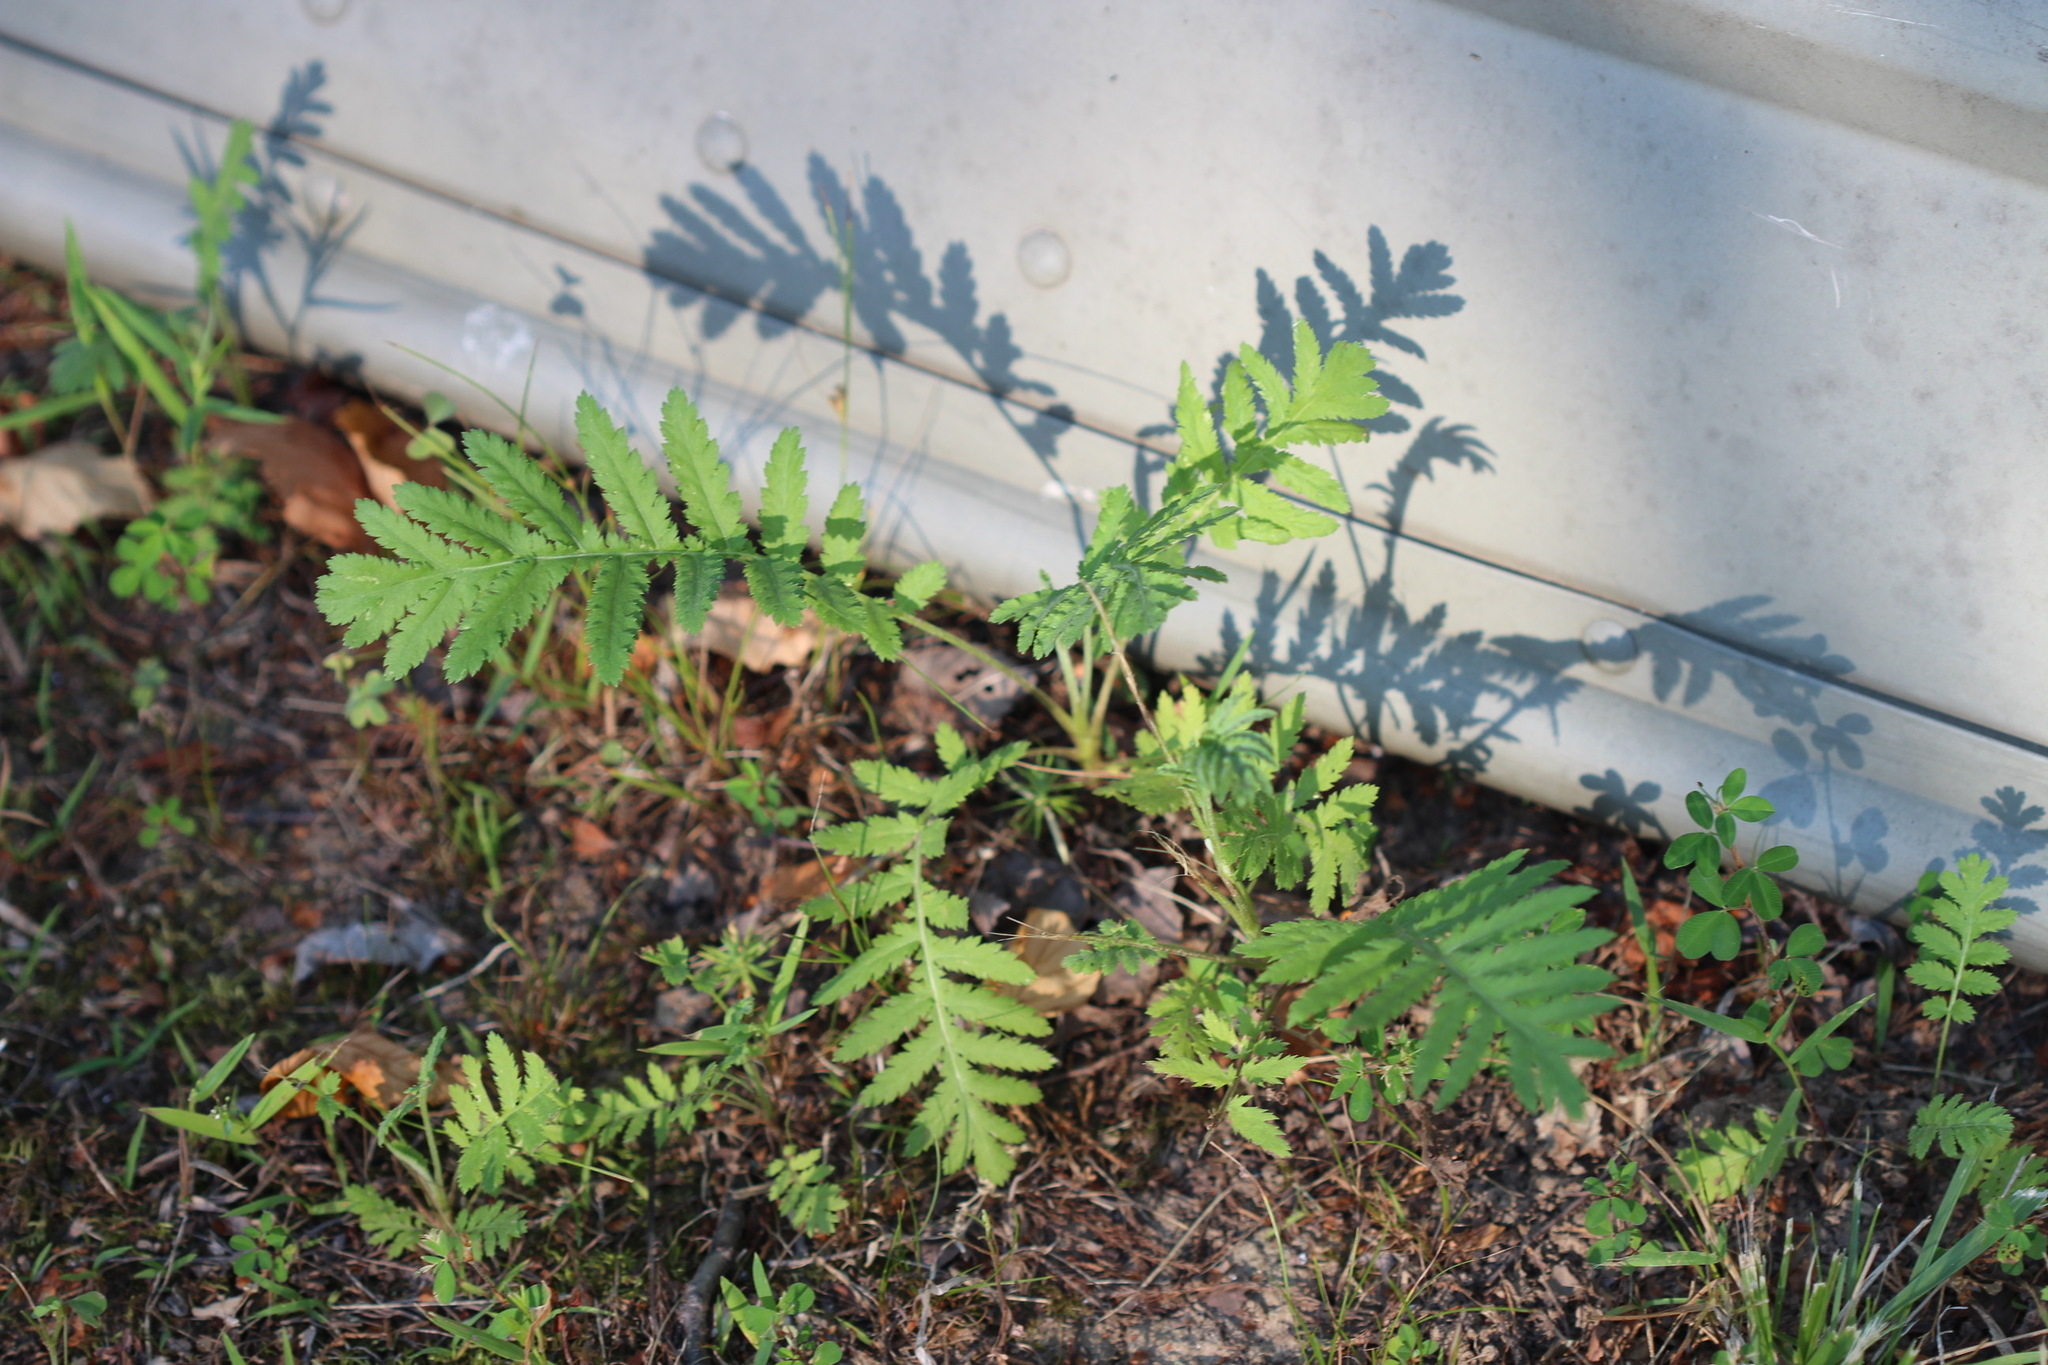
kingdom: Plantae
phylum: Tracheophyta
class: Magnoliopsida
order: Asterales
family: Asteraceae
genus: Tanacetum
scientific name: Tanacetum vulgare
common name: Common tansy
